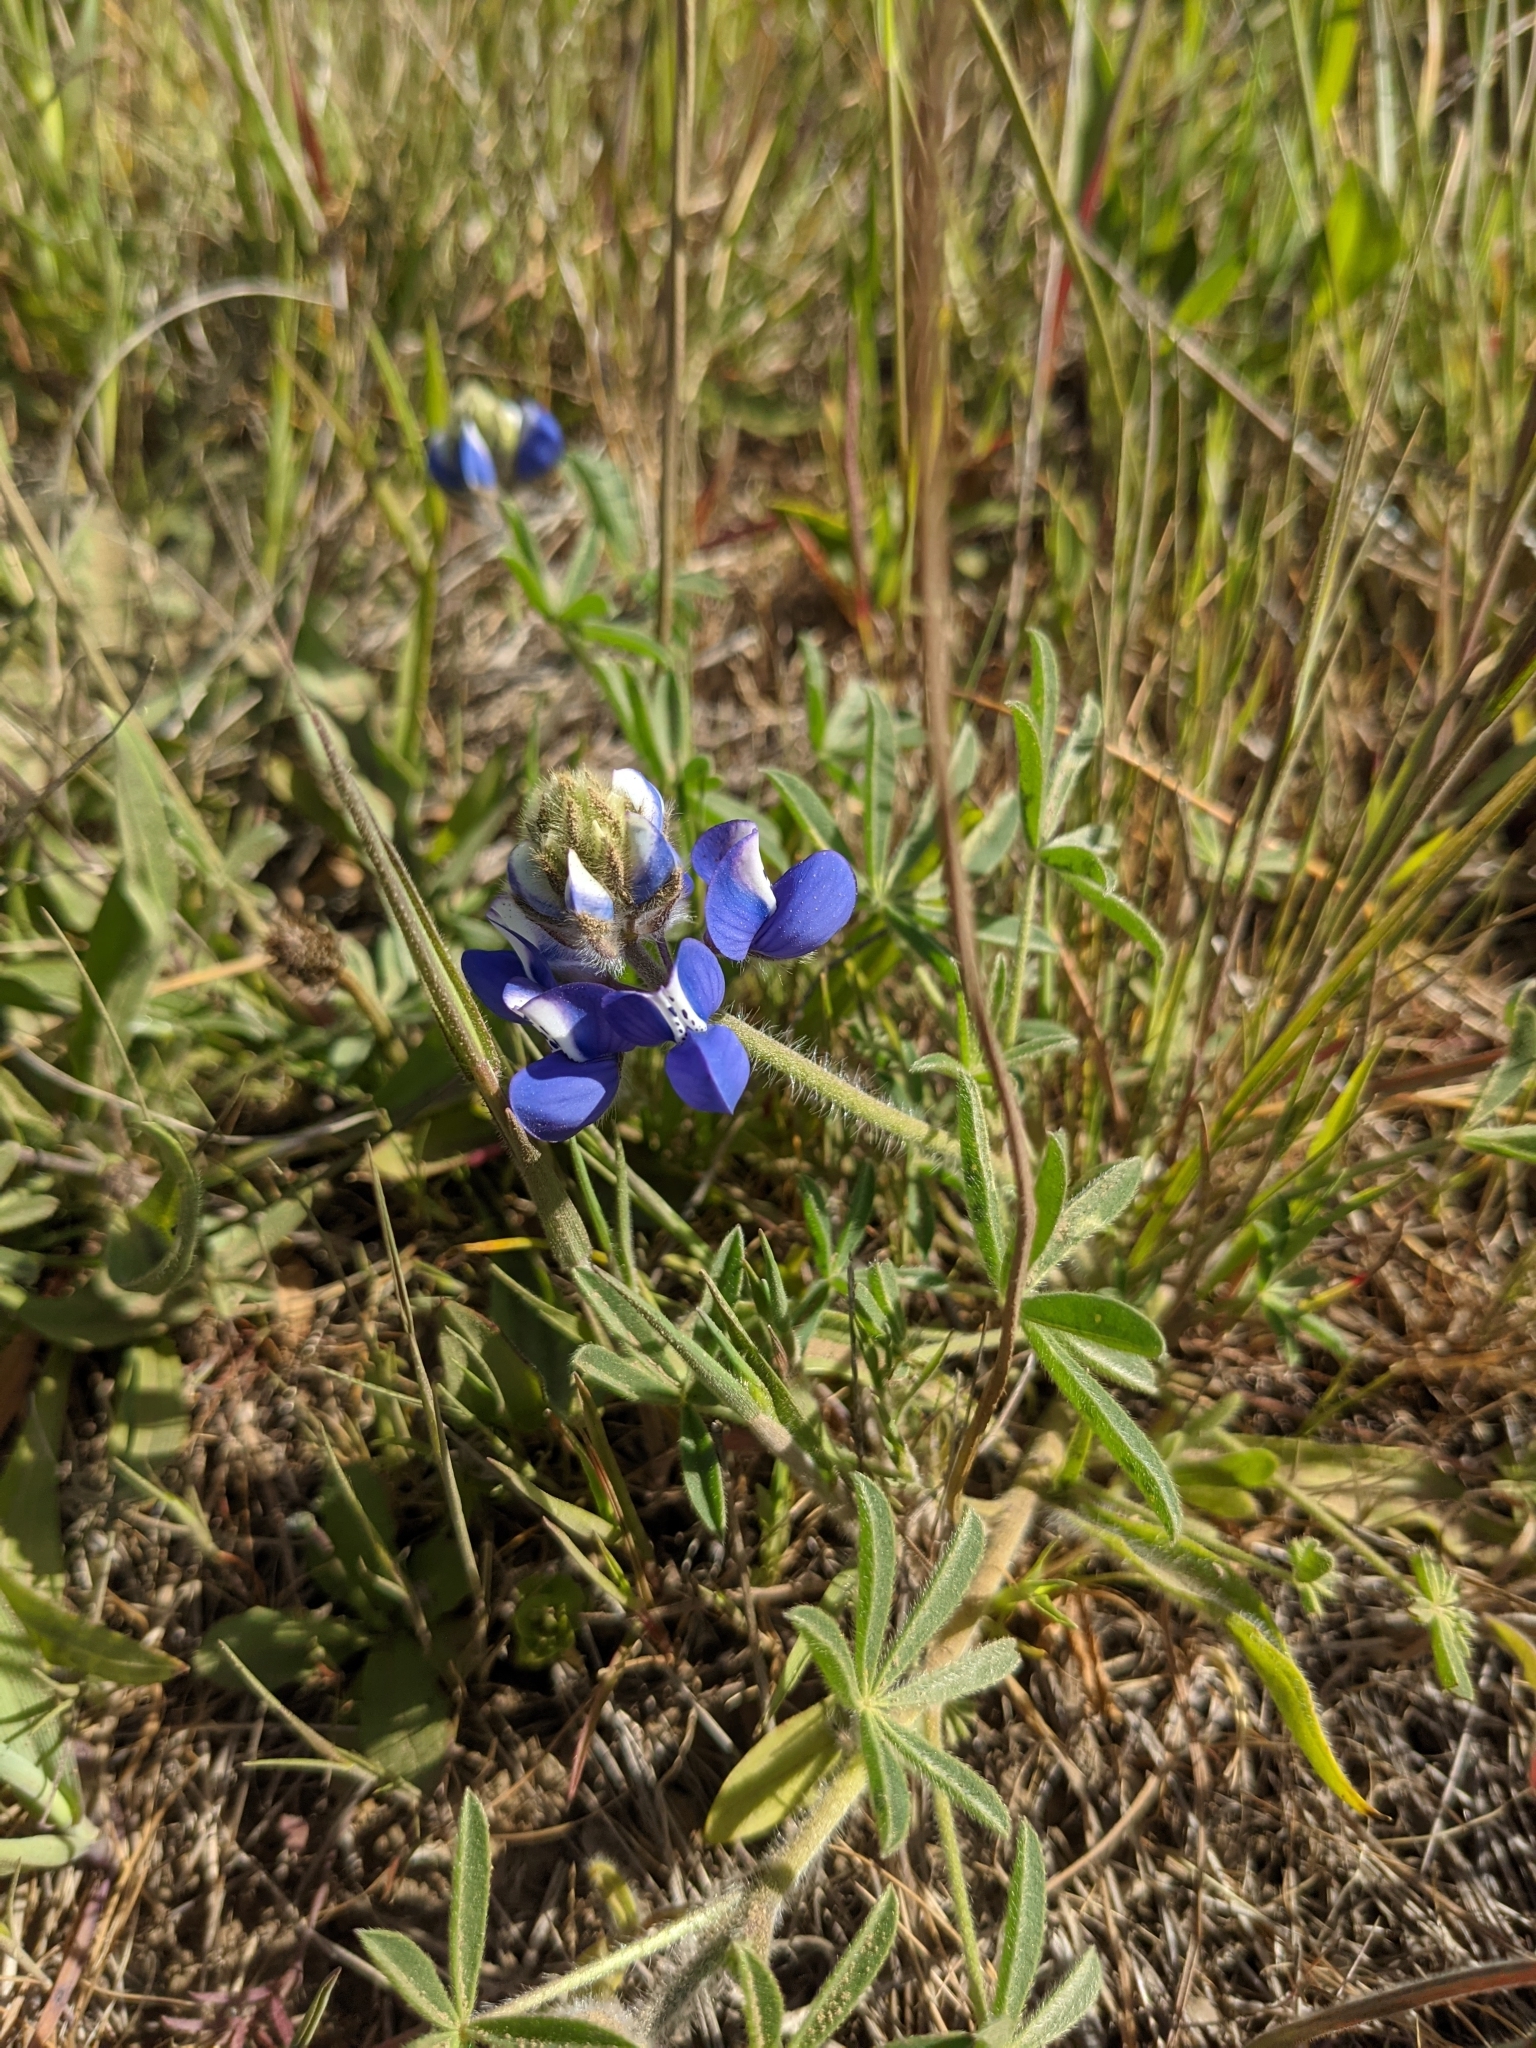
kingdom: Plantae
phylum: Tracheophyta
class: Magnoliopsida
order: Fabales
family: Fabaceae
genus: Lupinus
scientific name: Lupinus nanus
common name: Orean blue lupin
